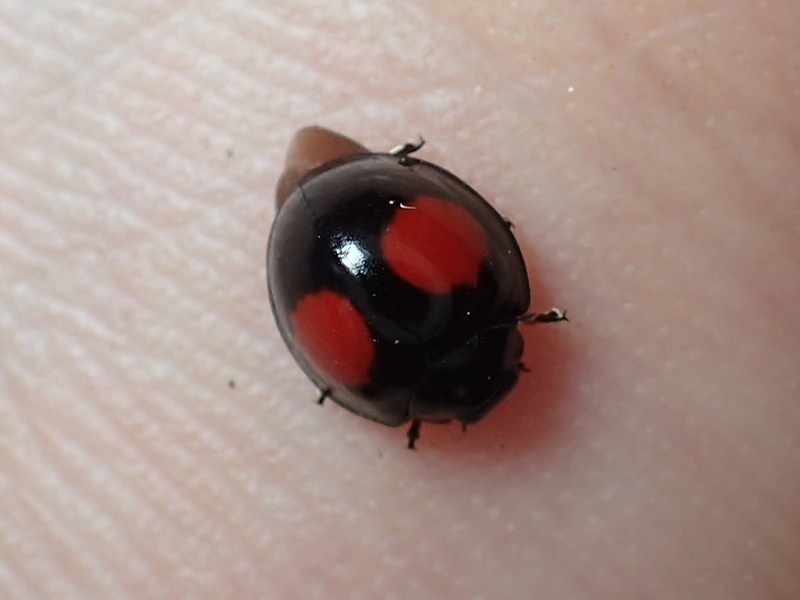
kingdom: Animalia
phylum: Arthropoda
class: Insecta
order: Coleoptera
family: Coccinellidae
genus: Chilocorus
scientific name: Chilocorus cacti
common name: Cactus lady beetle
